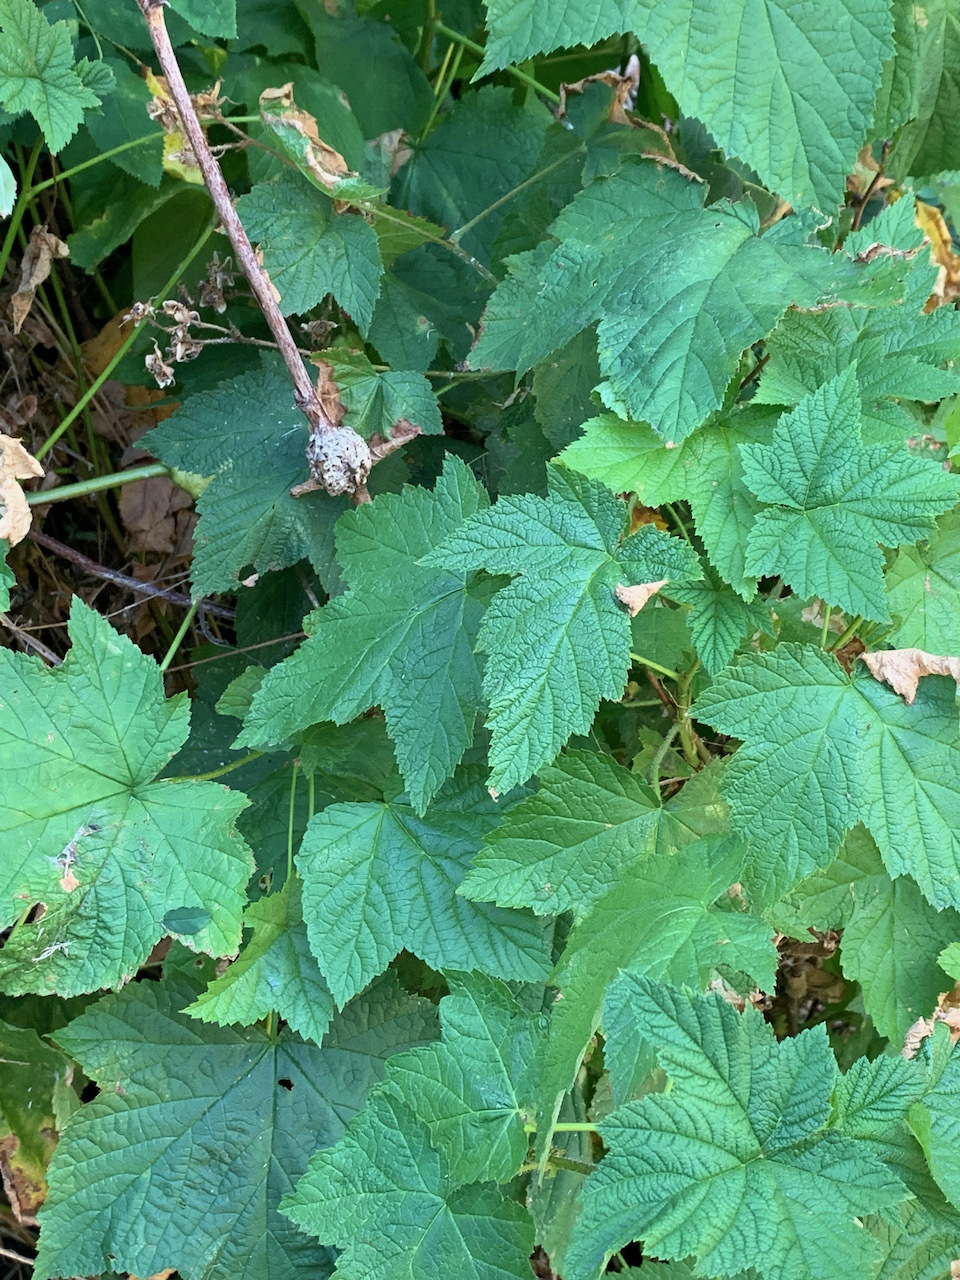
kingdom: Plantae
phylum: Tracheophyta
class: Magnoliopsida
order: Rosales
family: Rosaceae
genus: Rubus
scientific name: Rubus parviflorus
